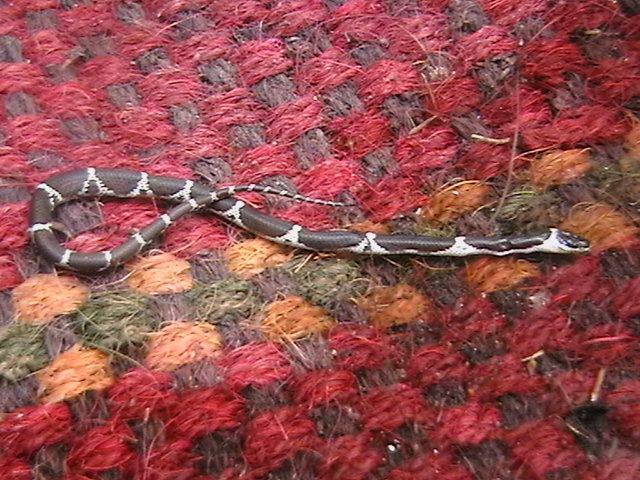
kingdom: Animalia
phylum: Chordata
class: Squamata
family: Colubridae
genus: Lycodon
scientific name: Lycodon aulicus
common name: Common wolf snake
